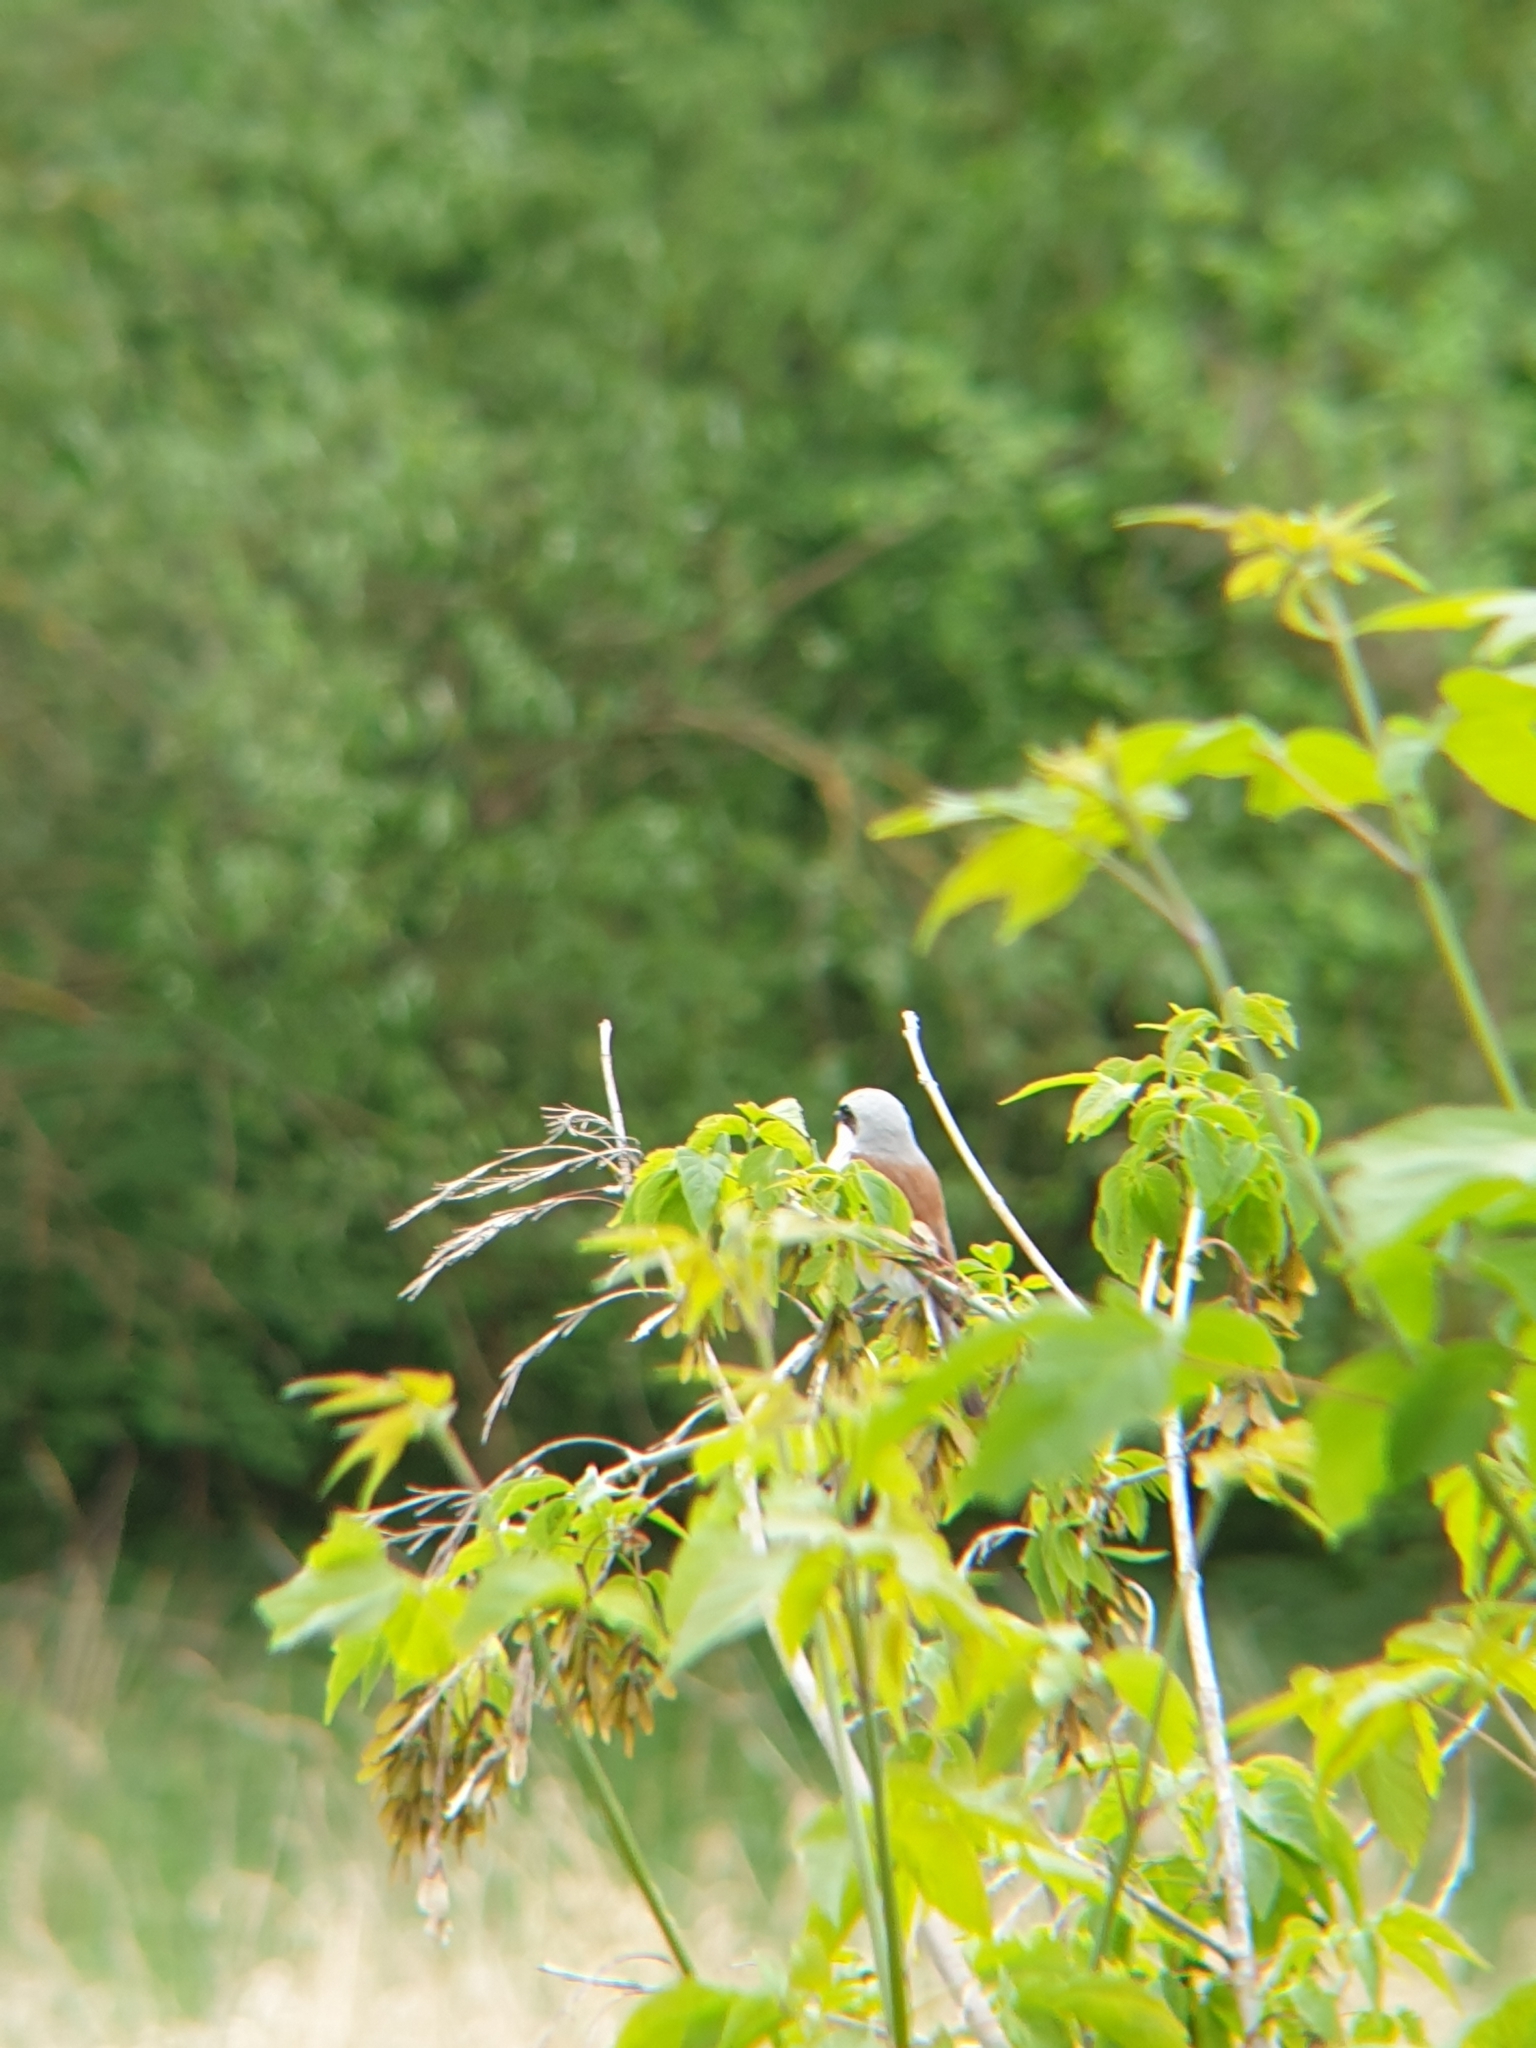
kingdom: Animalia
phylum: Chordata
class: Aves
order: Passeriformes
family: Laniidae
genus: Lanius
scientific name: Lanius collurio
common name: Red-backed shrike
